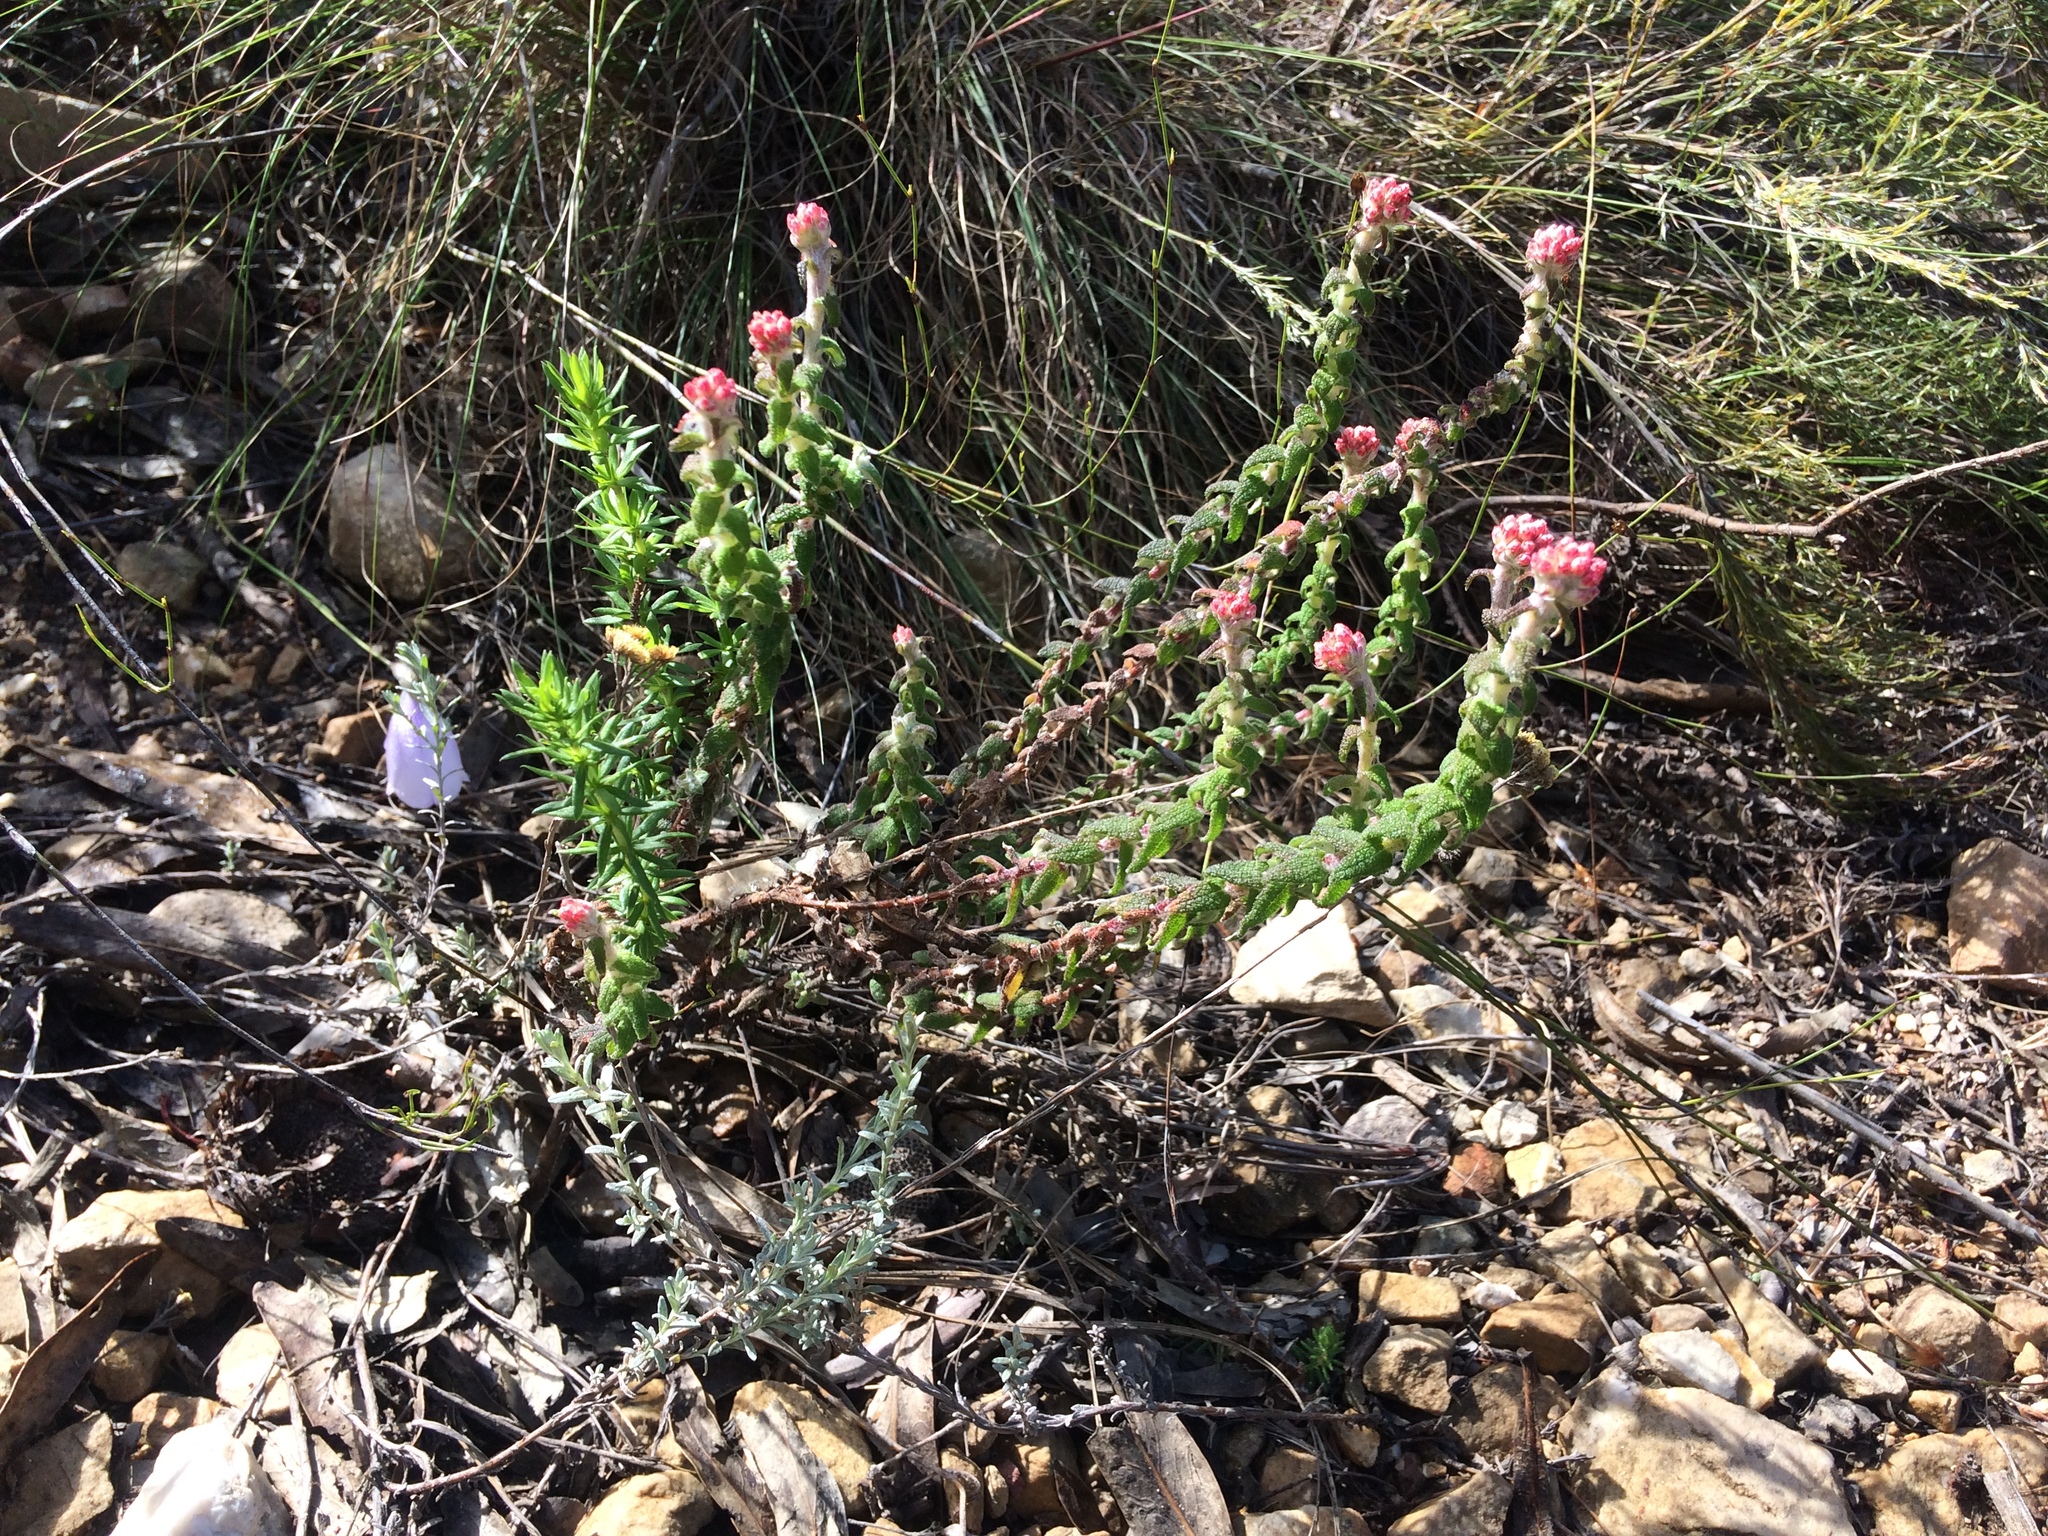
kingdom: Plantae
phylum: Tracheophyta
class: Magnoliopsida
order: Asterales
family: Asteraceae
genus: Helichrysum
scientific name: Helichrysum felinum
